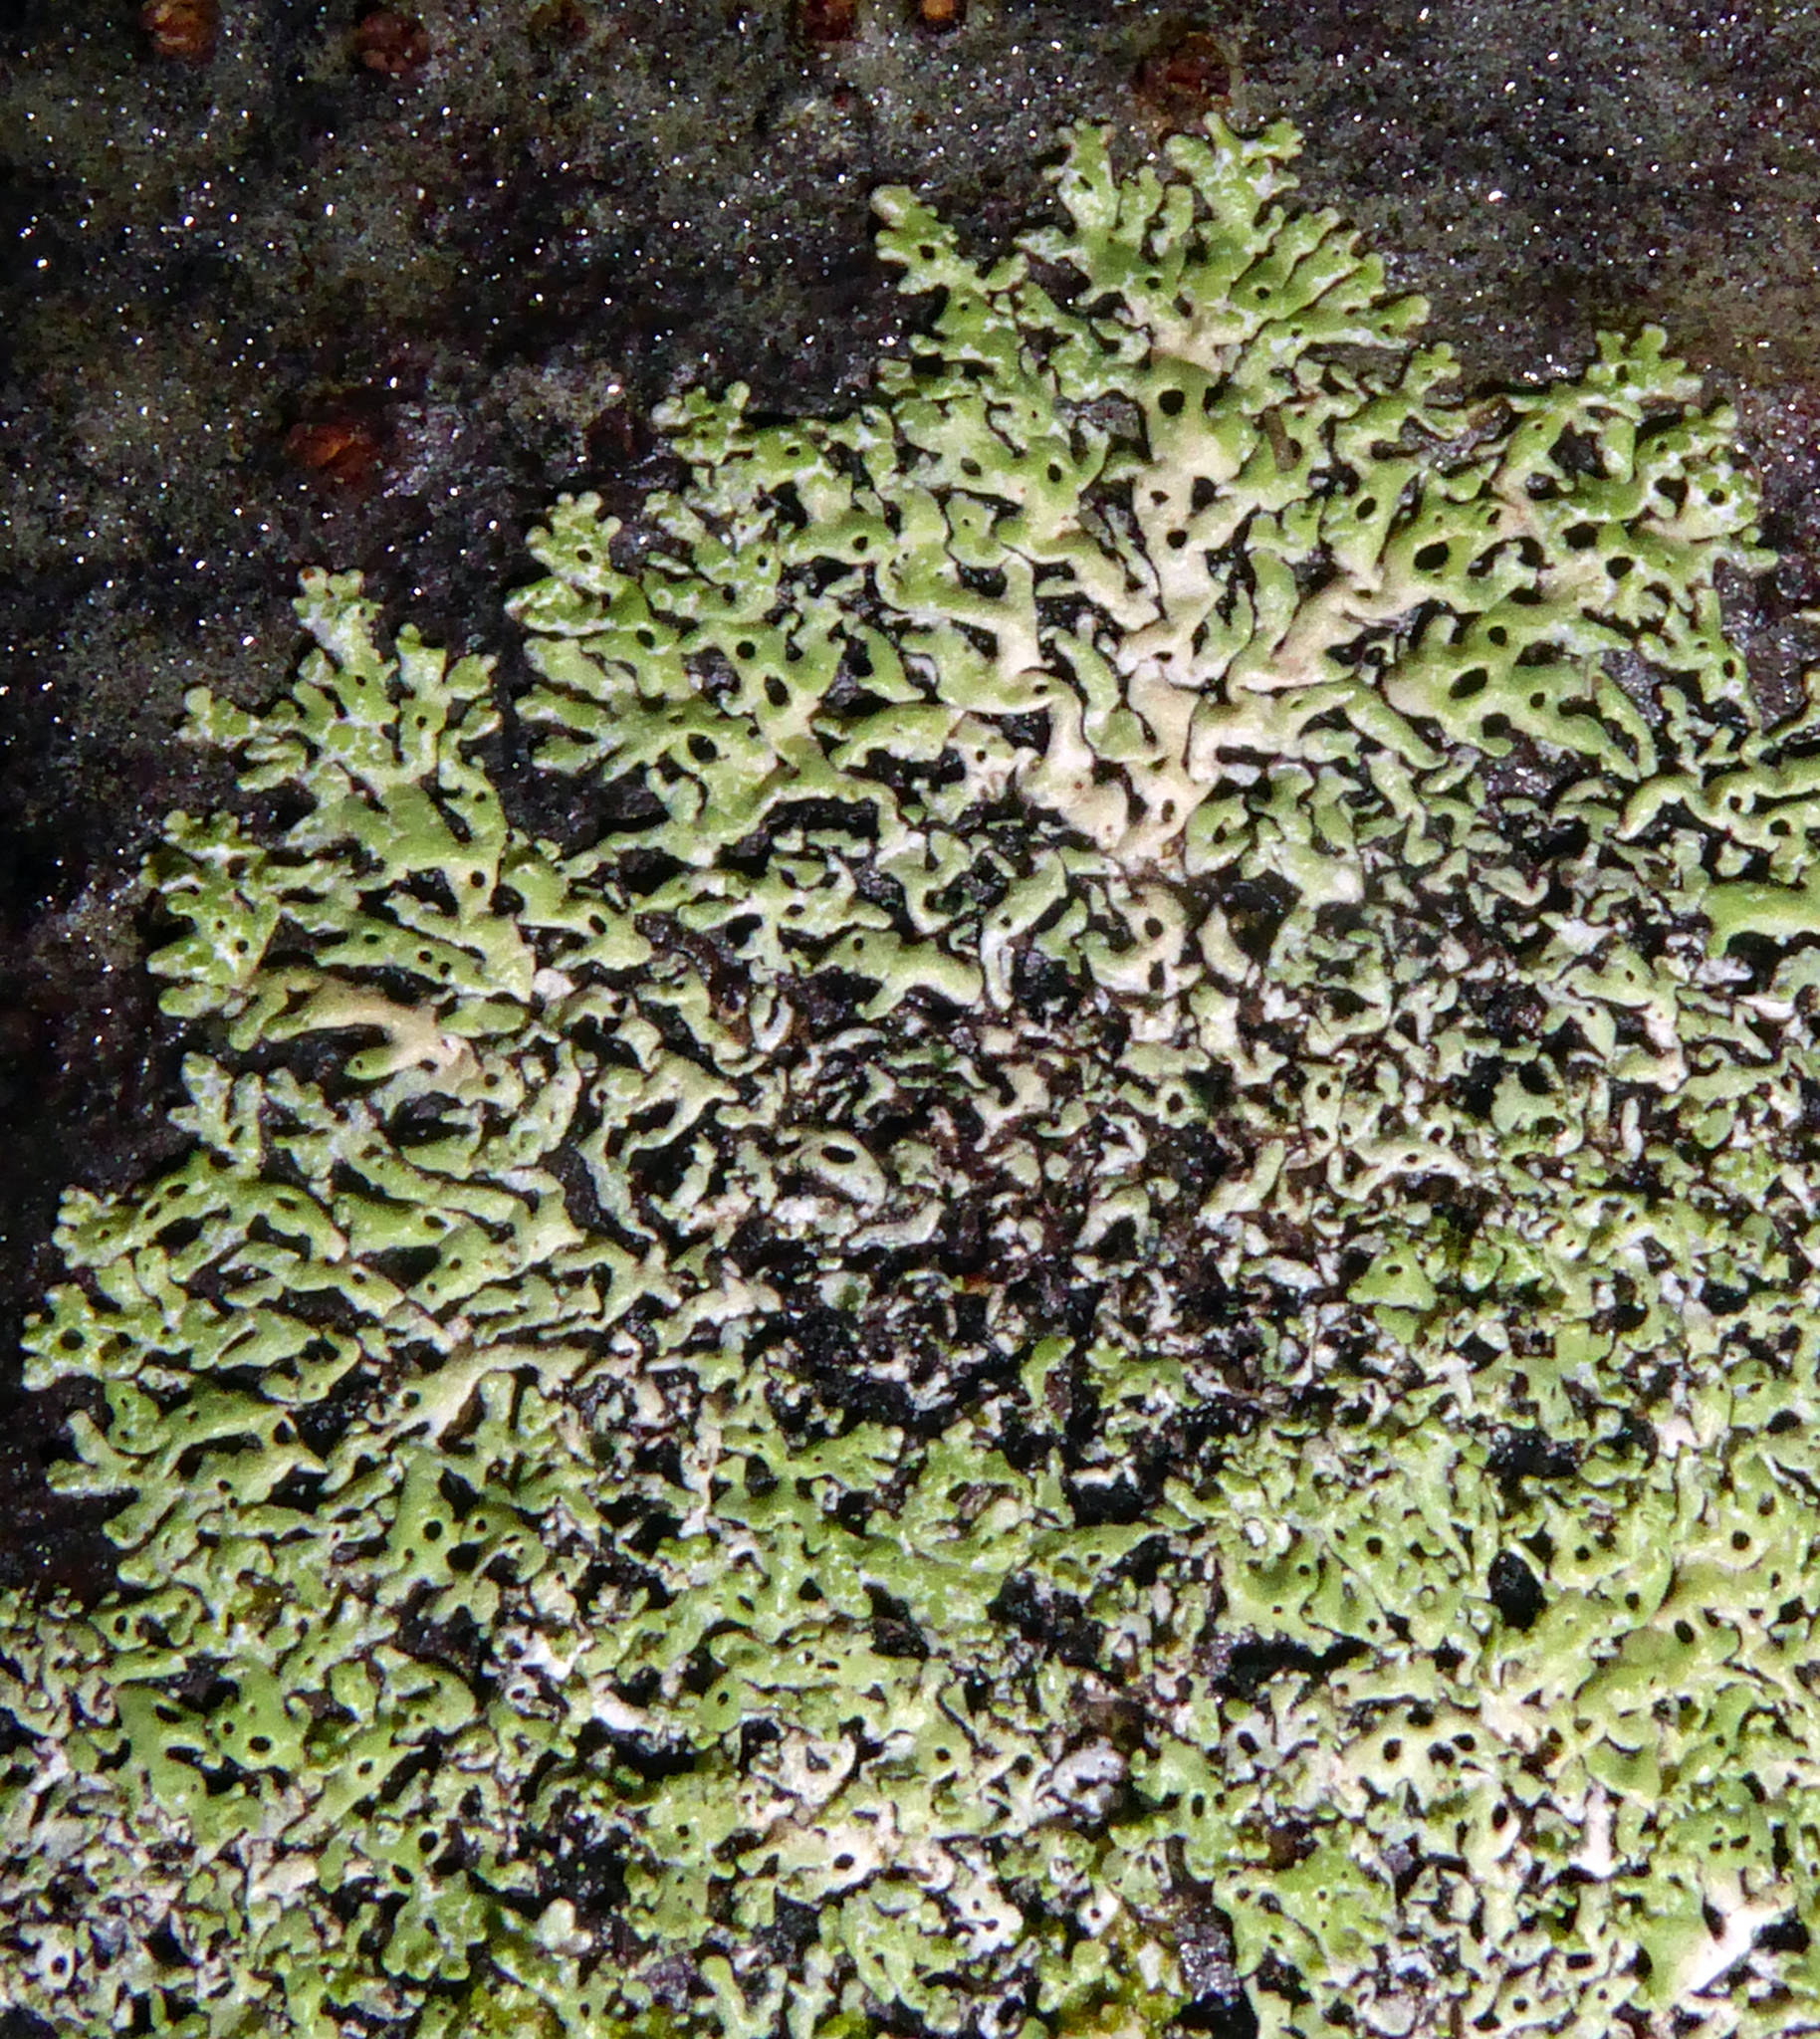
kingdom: Fungi
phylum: Ascomycota
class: Lecanoromycetes
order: Lecanorales
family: Parmeliaceae
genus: Menegazzia
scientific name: Menegazzia nothofagi
